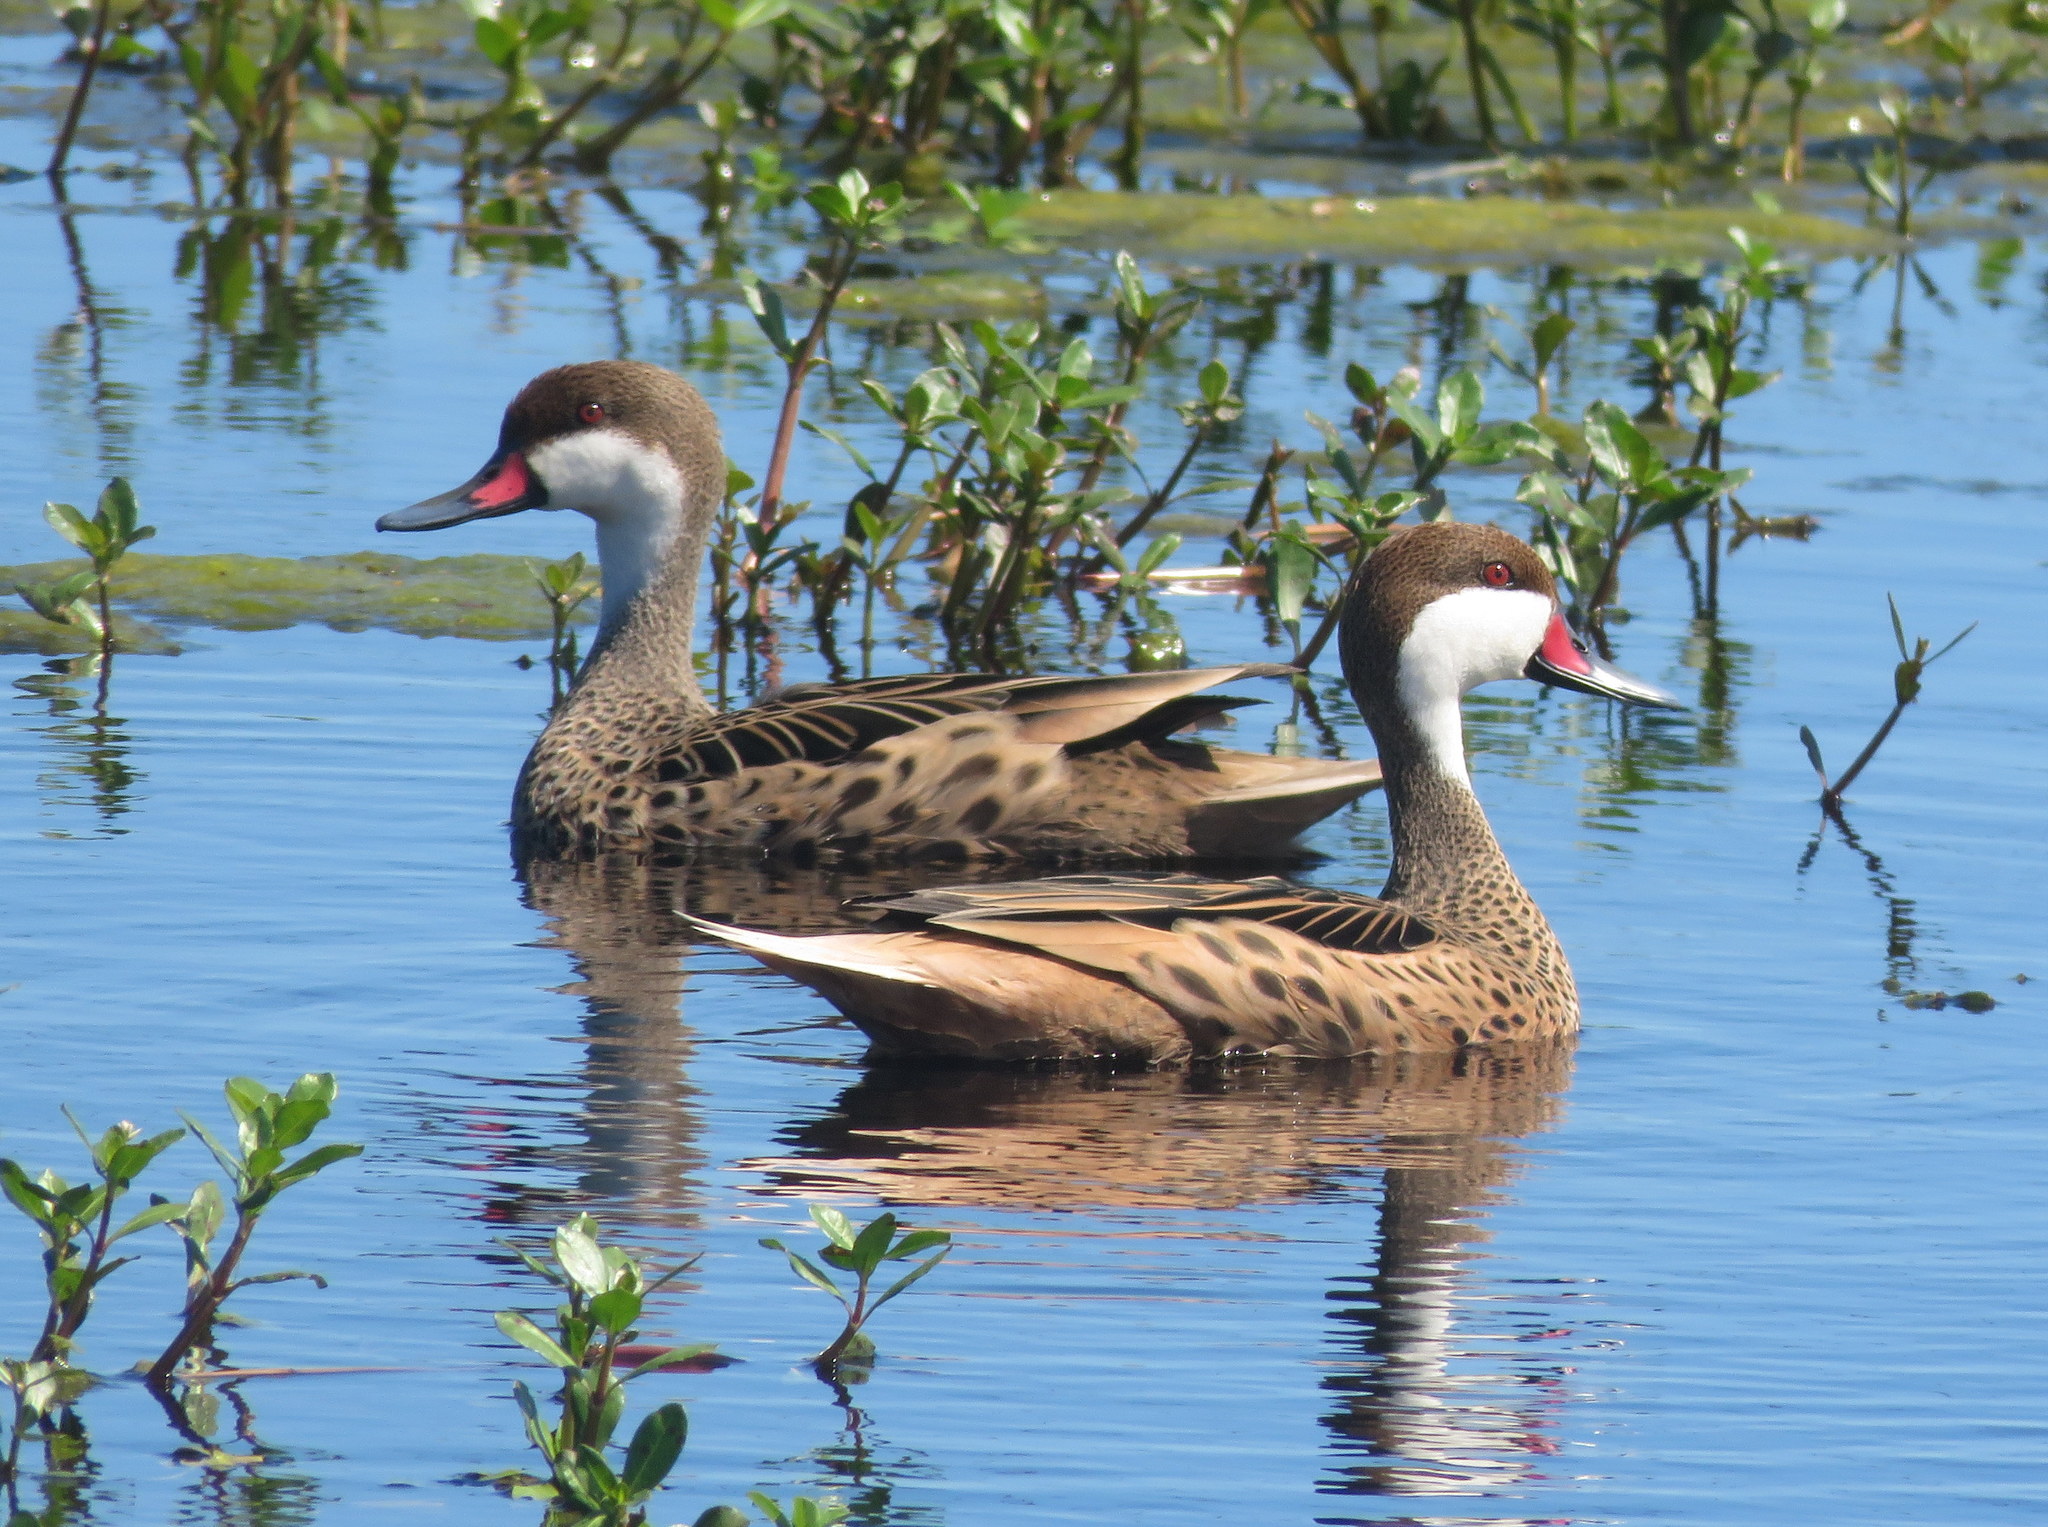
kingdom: Animalia
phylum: Chordata
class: Aves
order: Anseriformes
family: Anatidae
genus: Anas
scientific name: Anas bahamensis
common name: White-cheeked pintail
